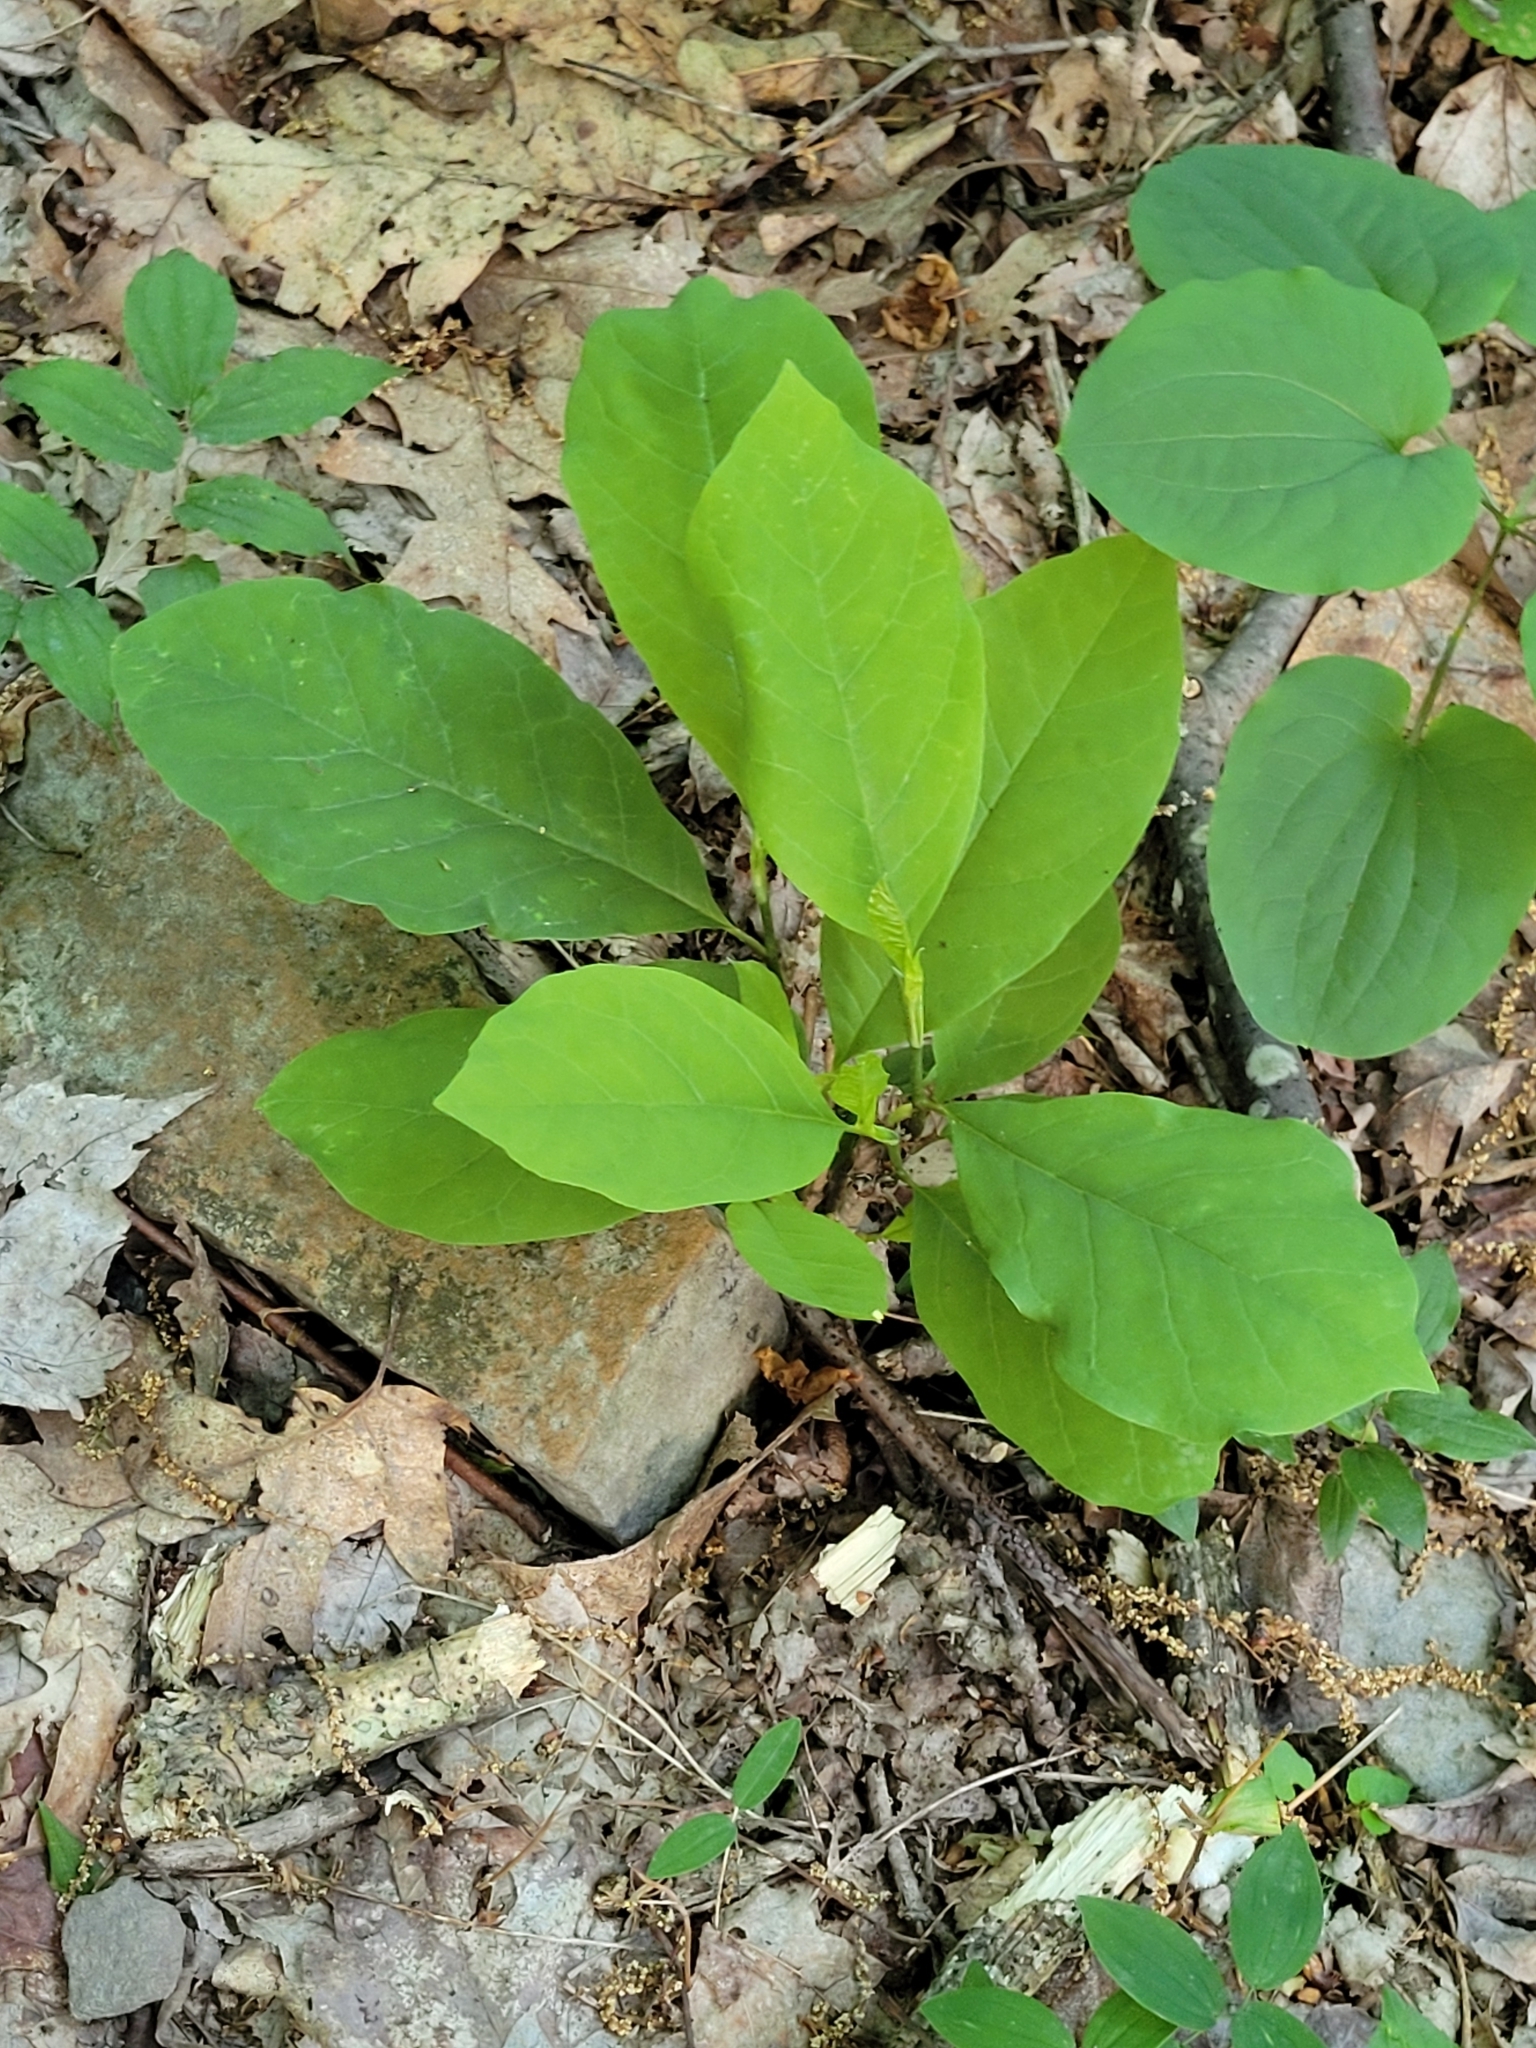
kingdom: Plantae
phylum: Tracheophyta
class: Magnoliopsida
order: Magnoliales
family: Magnoliaceae
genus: Magnolia
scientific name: Magnolia acuminata
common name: Cucumber magnolia
